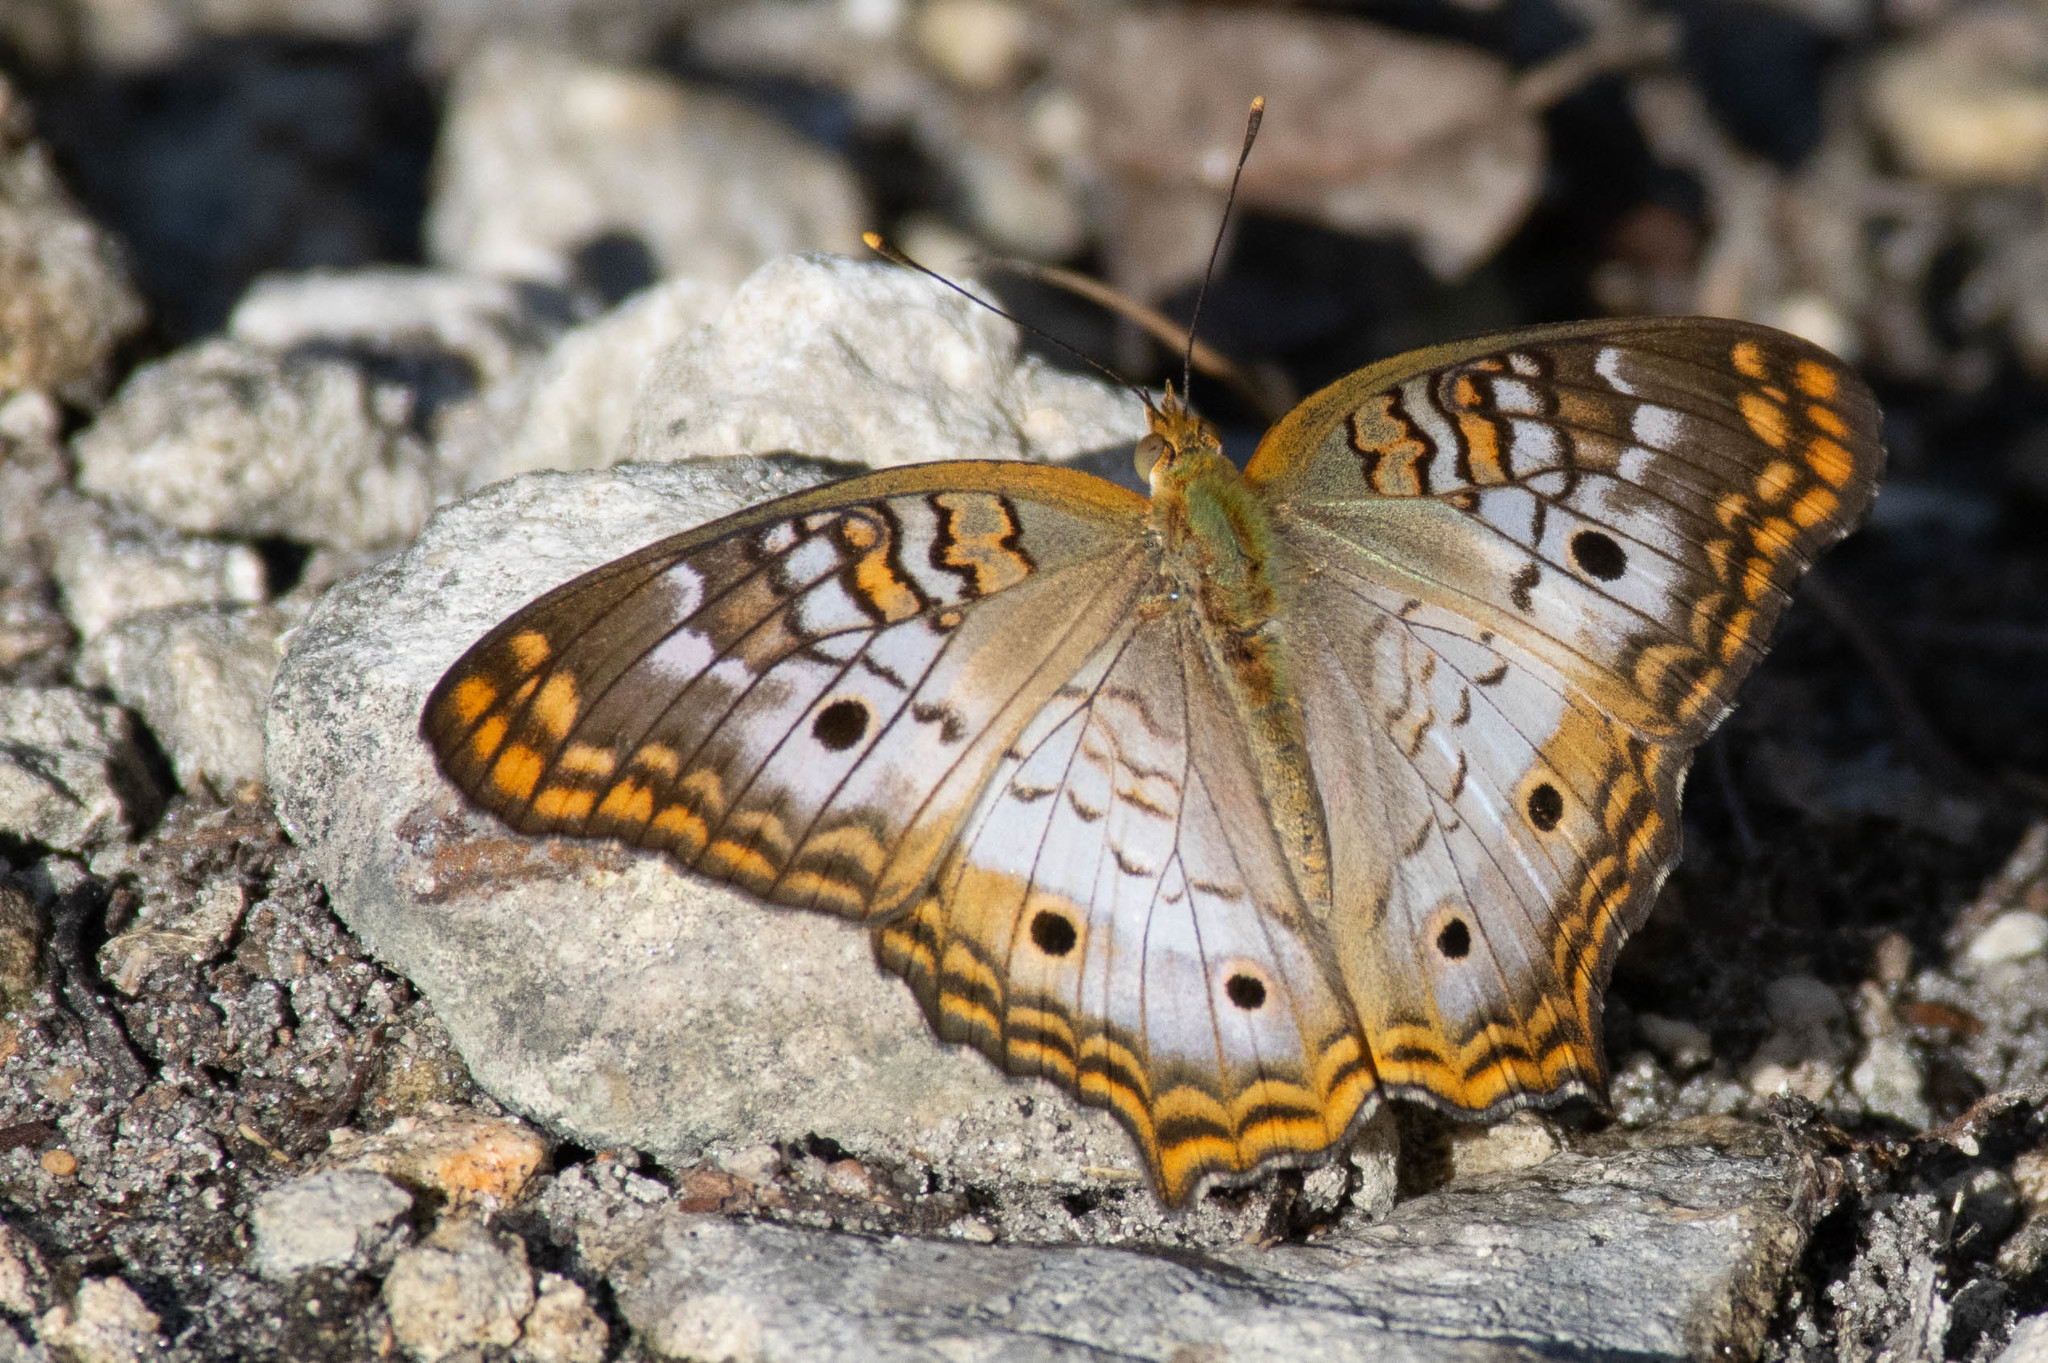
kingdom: Animalia
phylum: Arthropoda
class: Insecta
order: Lepidoptera
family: Nymphalidae
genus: Anartia
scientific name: Anartia jatrophae
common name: White peacock
